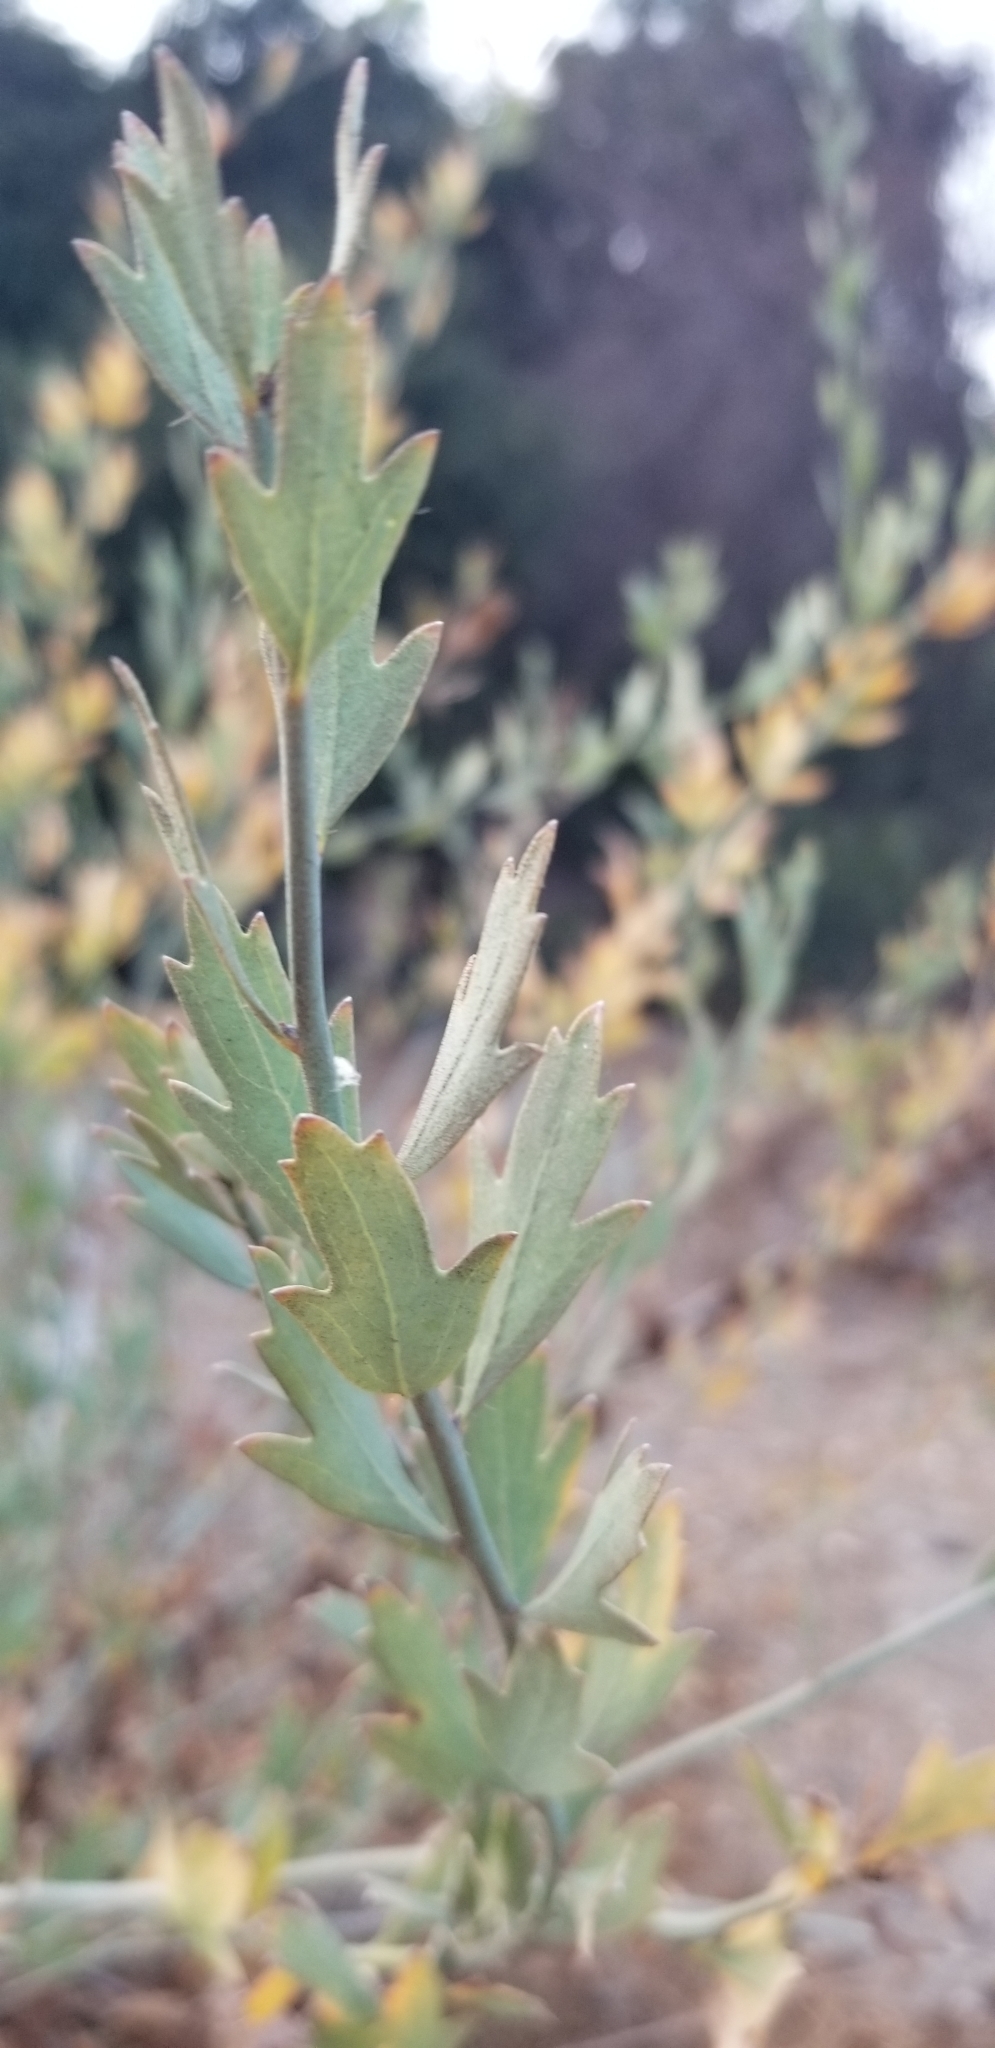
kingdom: Plantae
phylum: Tracheophyta
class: Magnoliopsida
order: Ranunculales
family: Papaveraceae
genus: Romneya
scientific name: Romneya coulteri
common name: California tree-poppy
